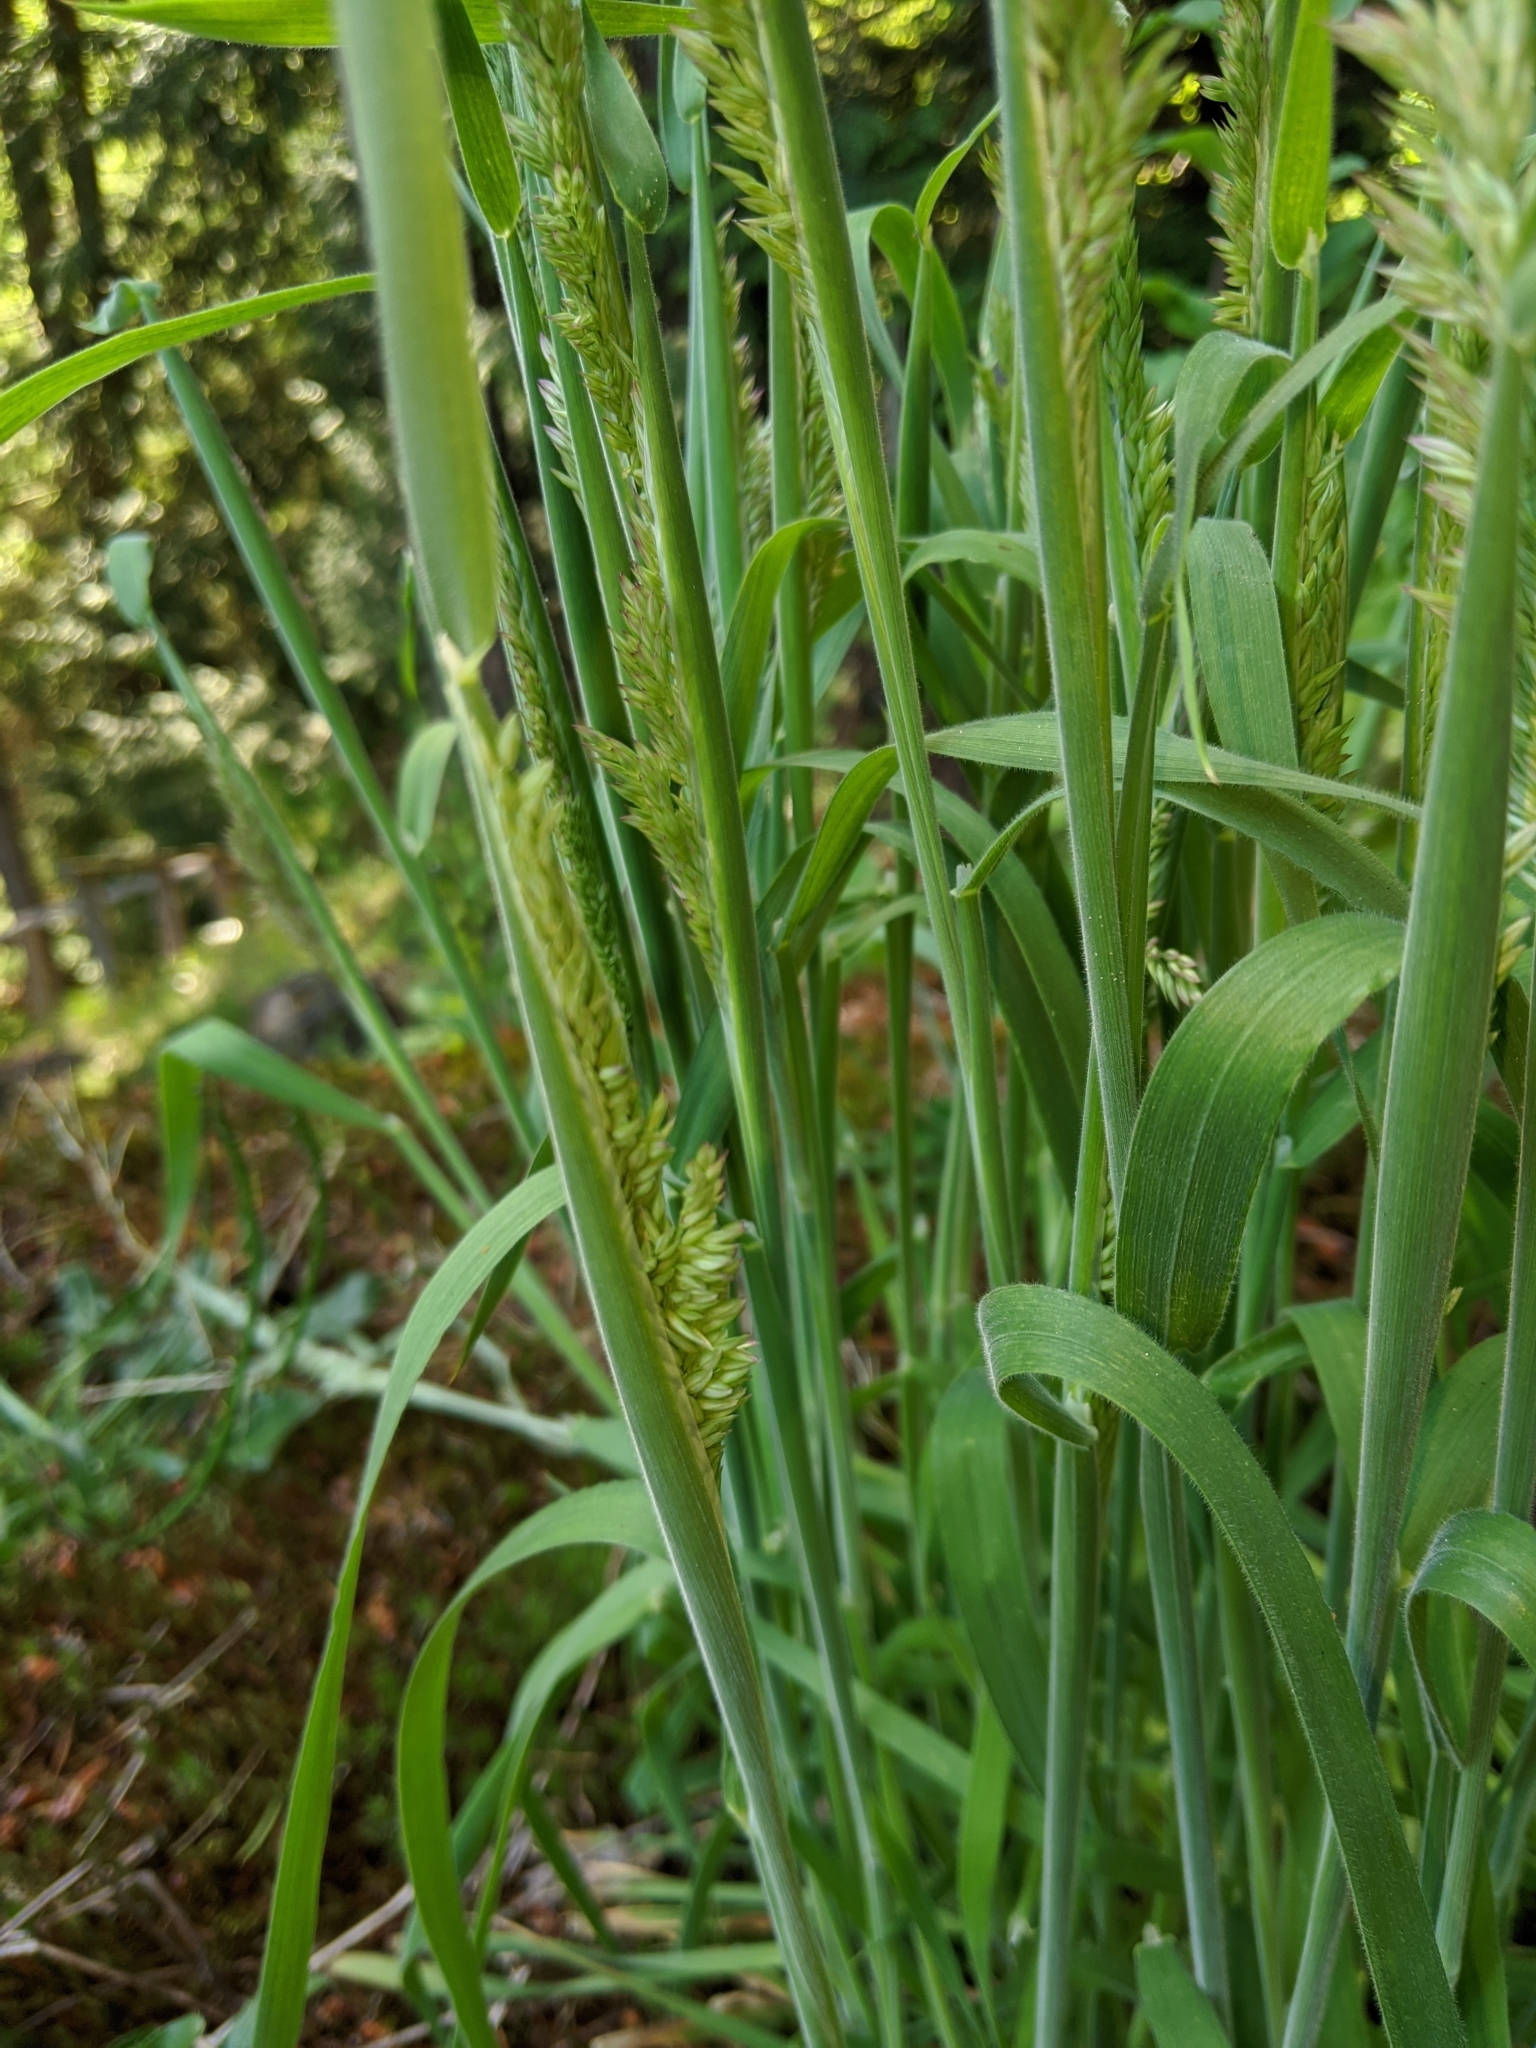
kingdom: Plantae
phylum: Tracheophyta
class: Liliopsida
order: Poales
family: Poaceae
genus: Holcus
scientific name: Holcus lanatus
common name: Yorkshire-fog
